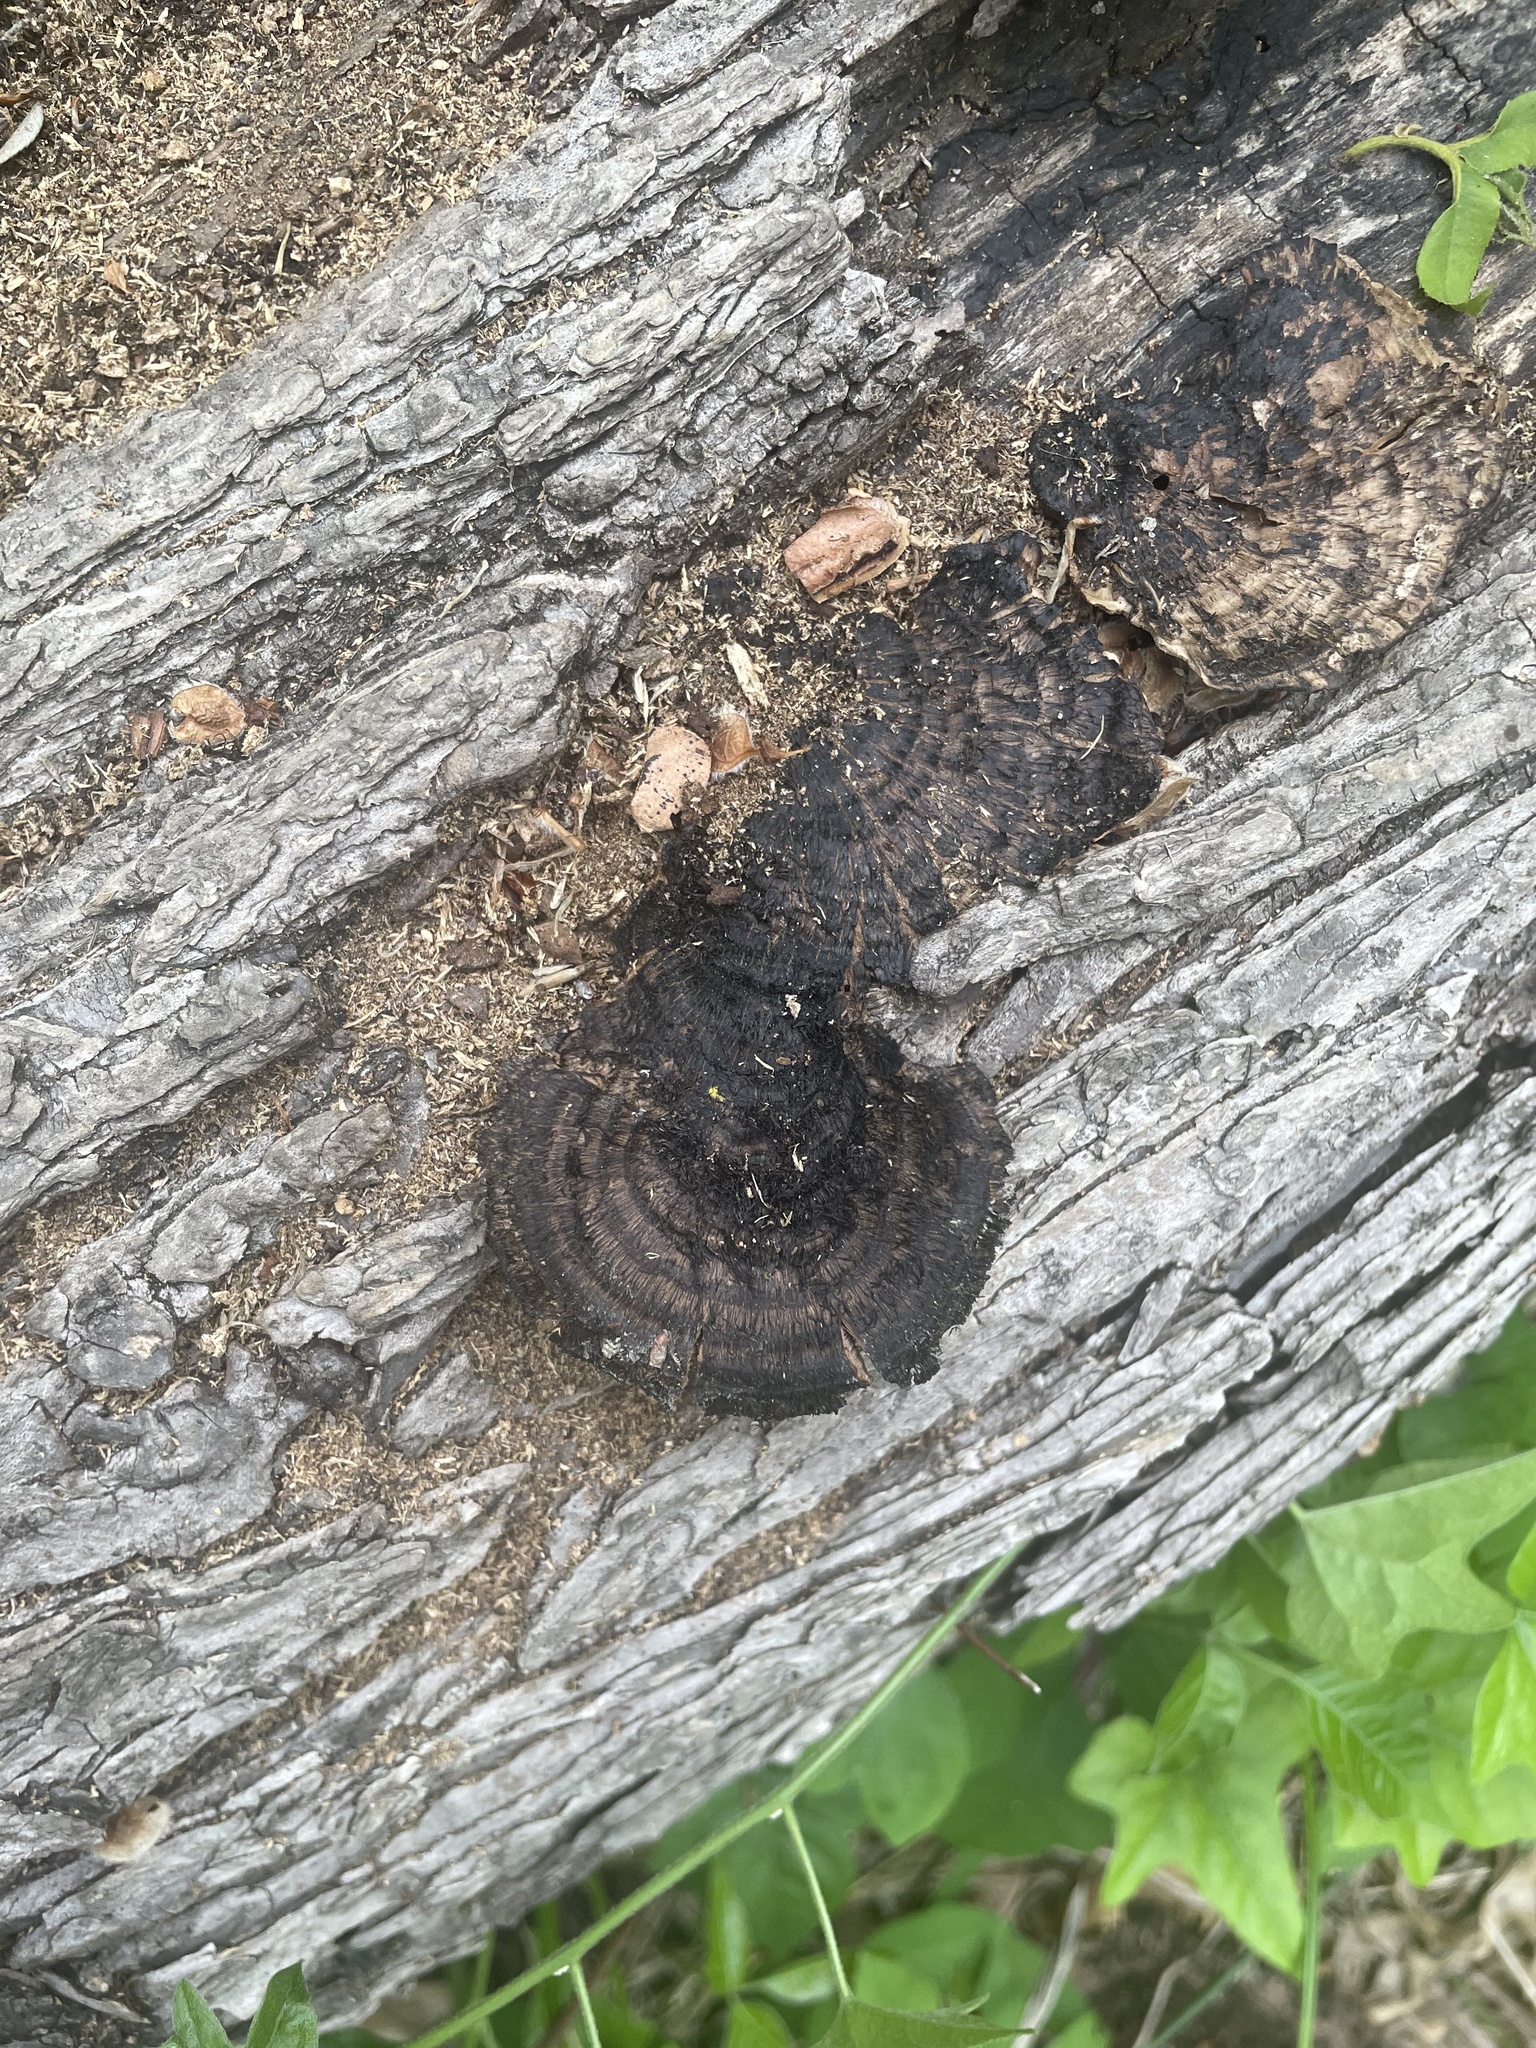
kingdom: Fungi
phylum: Basidiomycota
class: Agaricomycetes
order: Polyporales
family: Cerrenaceae
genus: Cerrena
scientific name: Cerrena hydnoides
